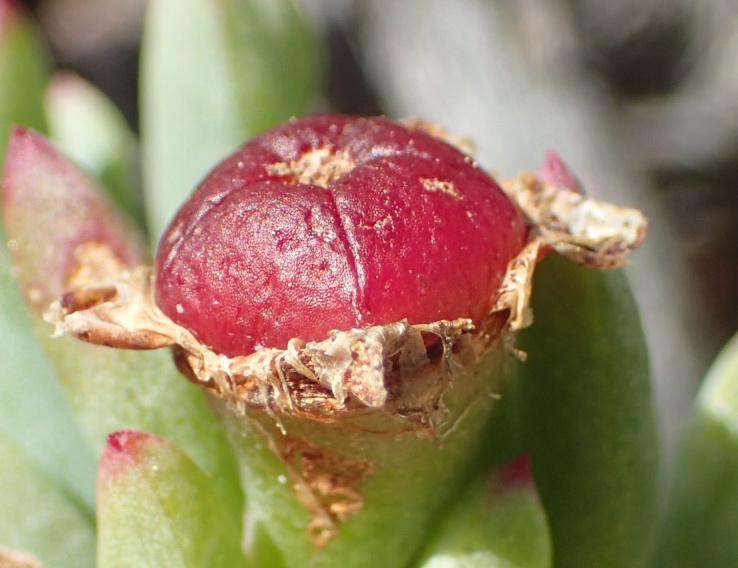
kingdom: Plantae
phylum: Tracheophyta
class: Magnoliopsida
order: Caryophyllales
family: Aizoaceae
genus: Lampranthus
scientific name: Lampranthus salicola
